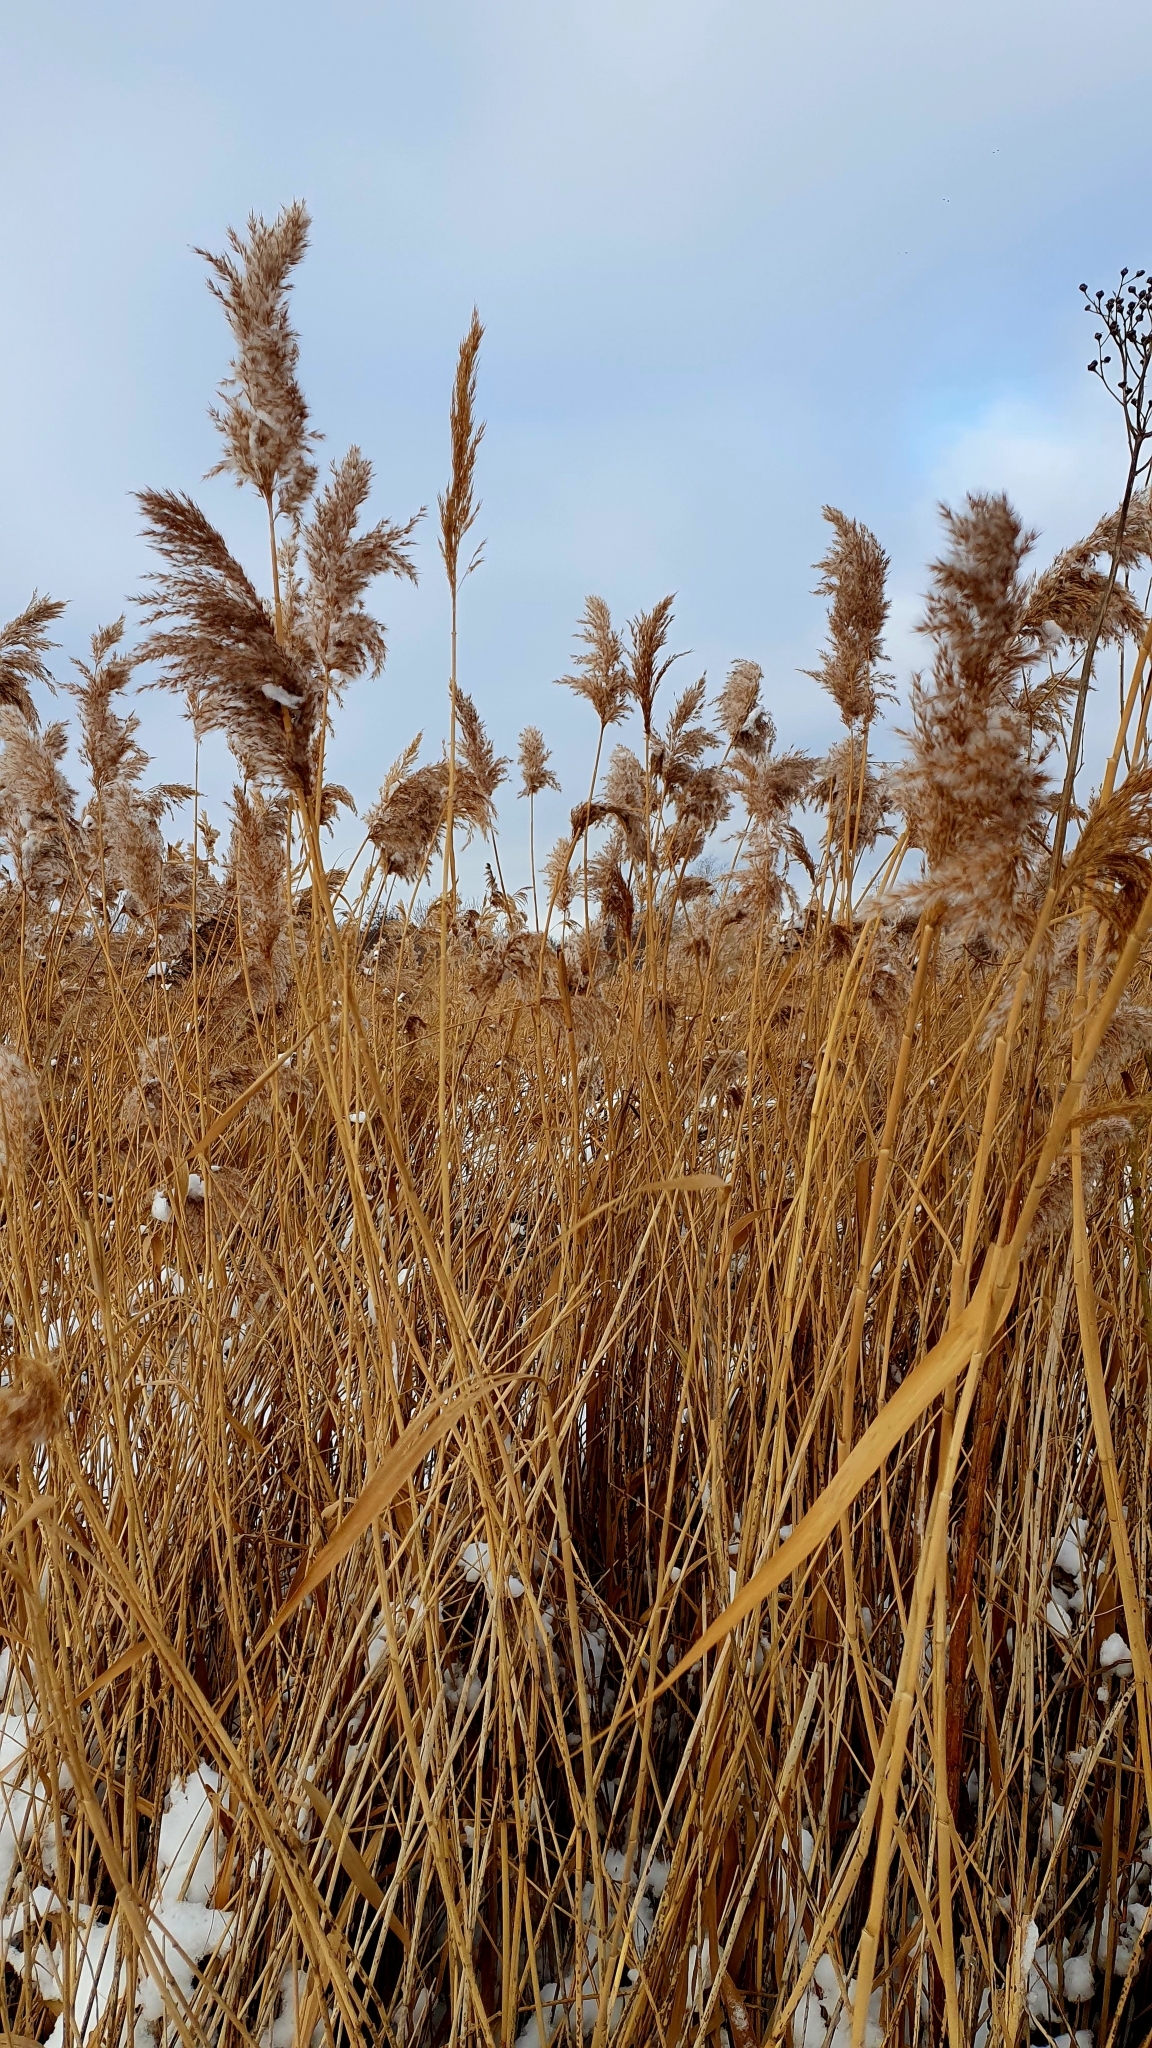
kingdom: Plantae
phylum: Tracheophyta
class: Liliopsida
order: Poales
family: Poaceae
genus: Phragmites
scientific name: Phragmites australis
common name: Common reed
